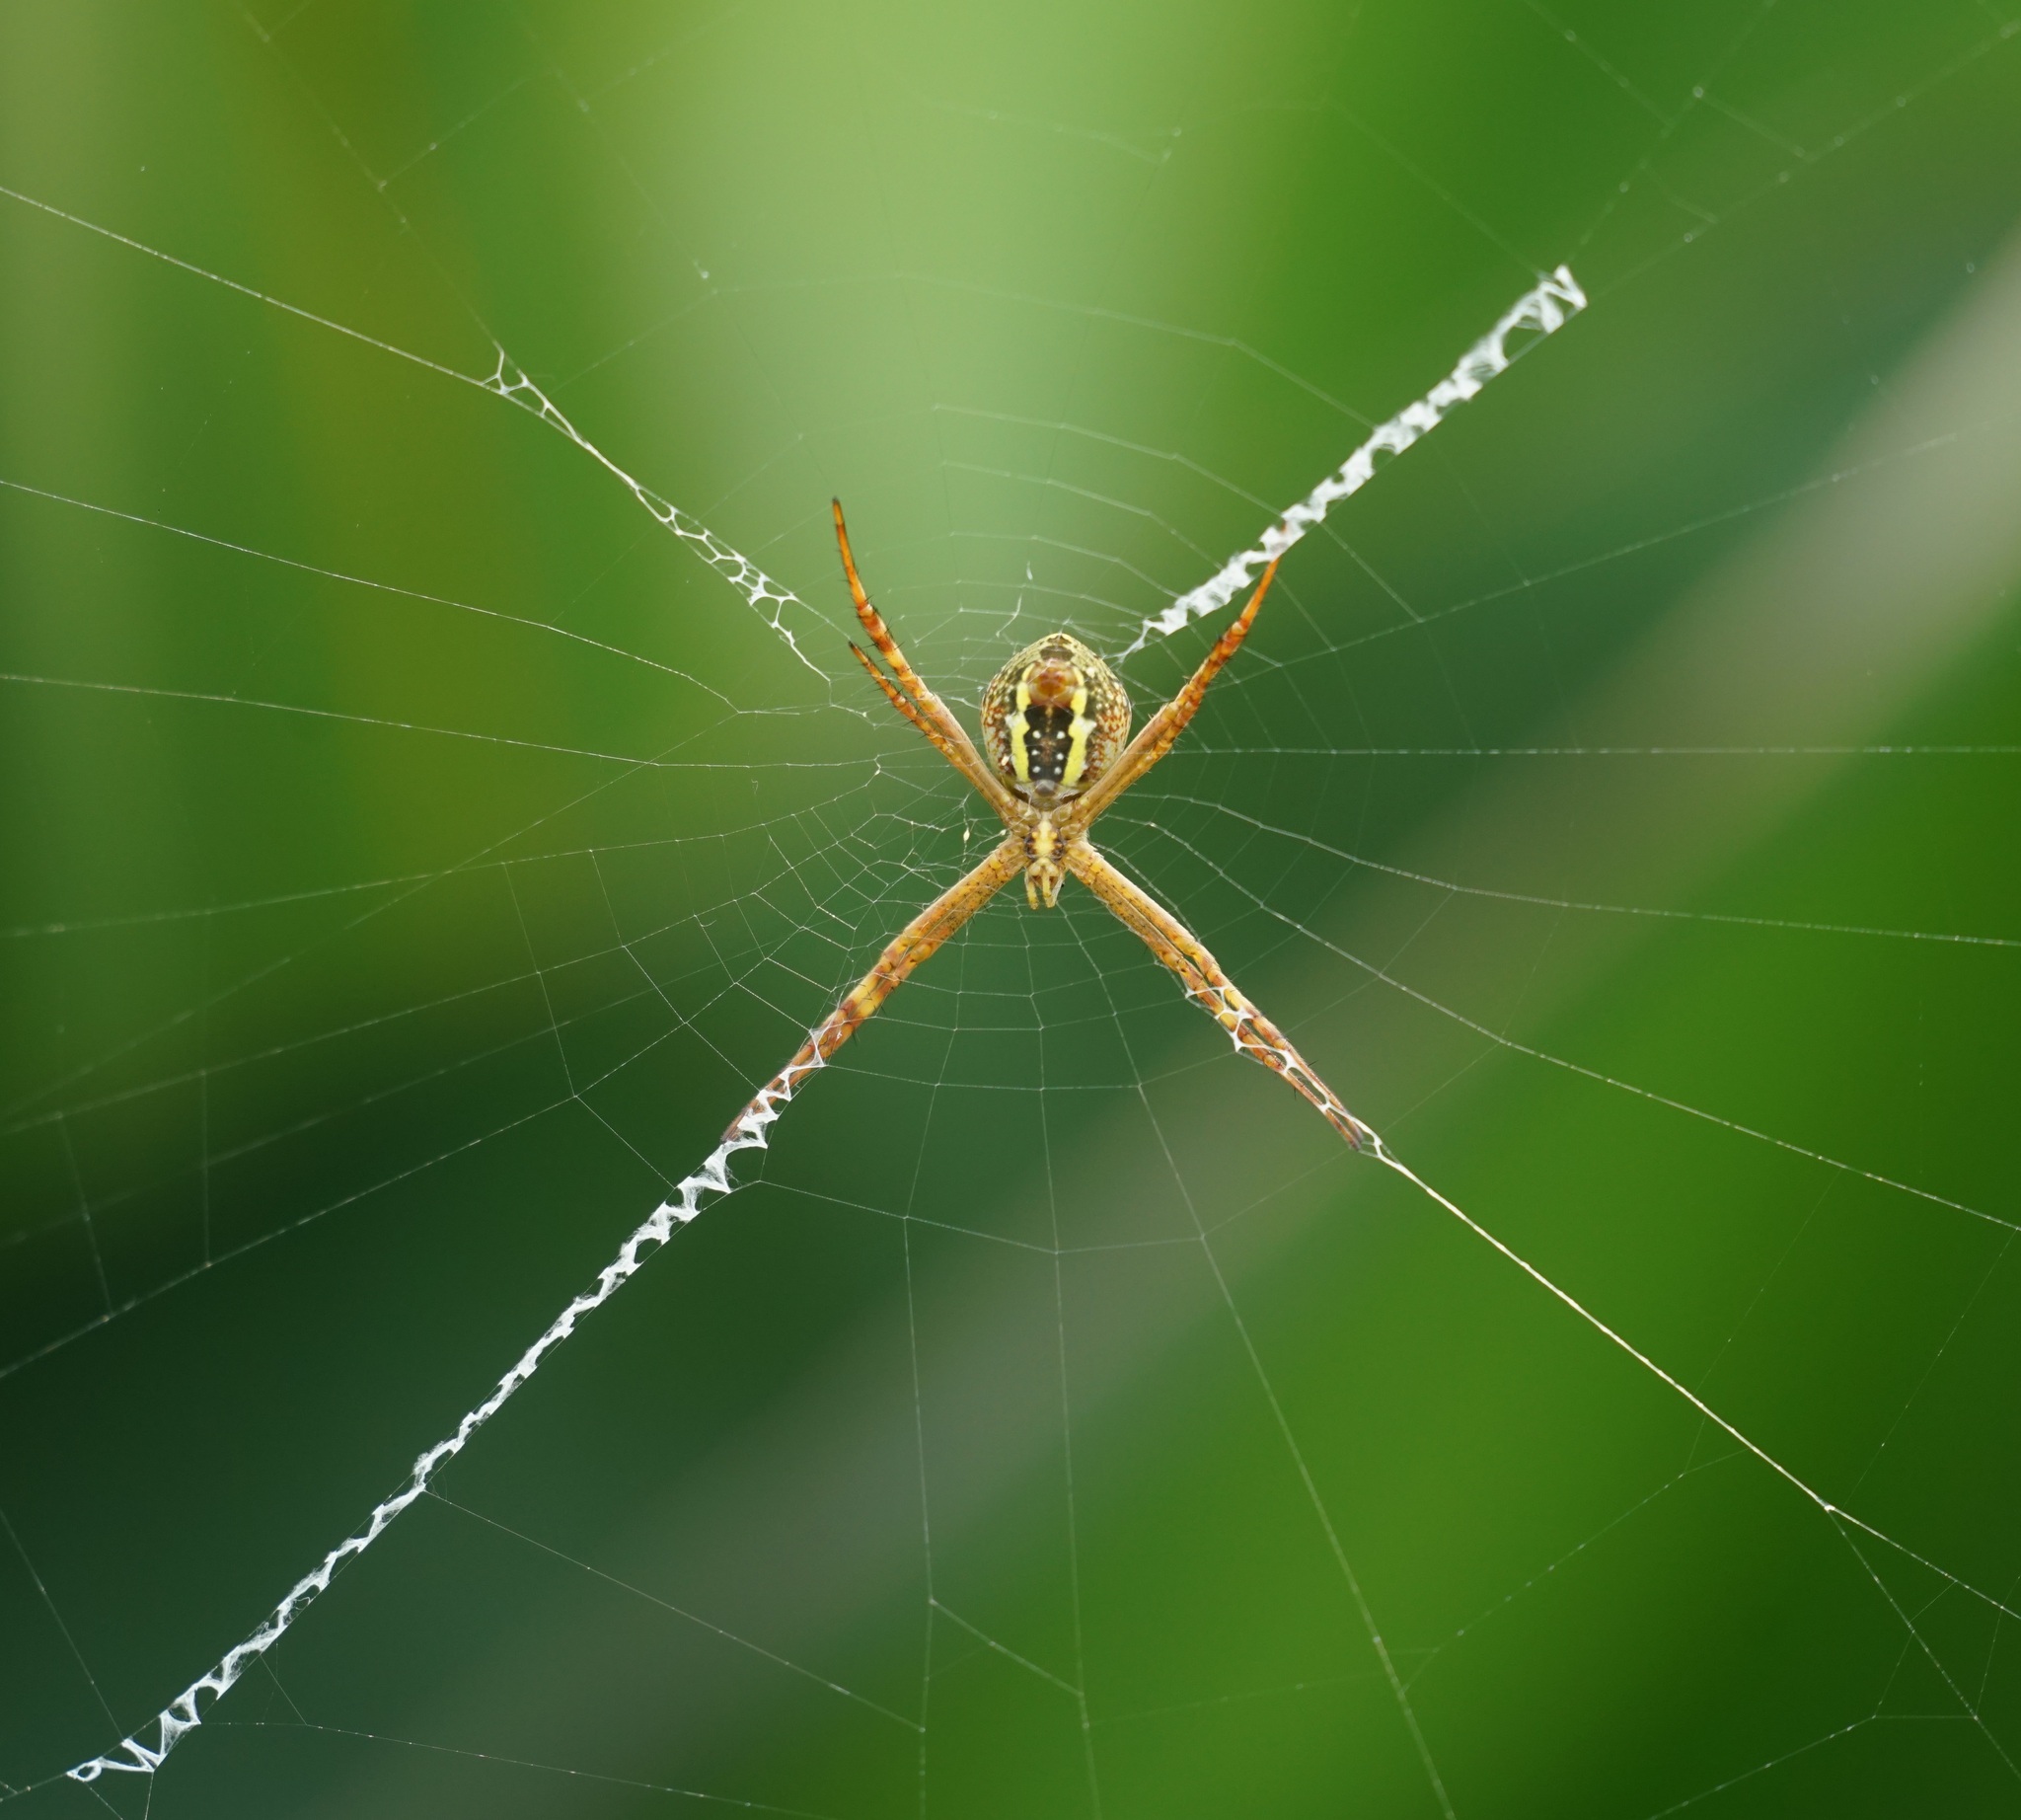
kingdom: Animalia
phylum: Arthropoda
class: Arachnida
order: Araneae
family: Araneidae
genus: Argiope
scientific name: Argiope keyserlingi
